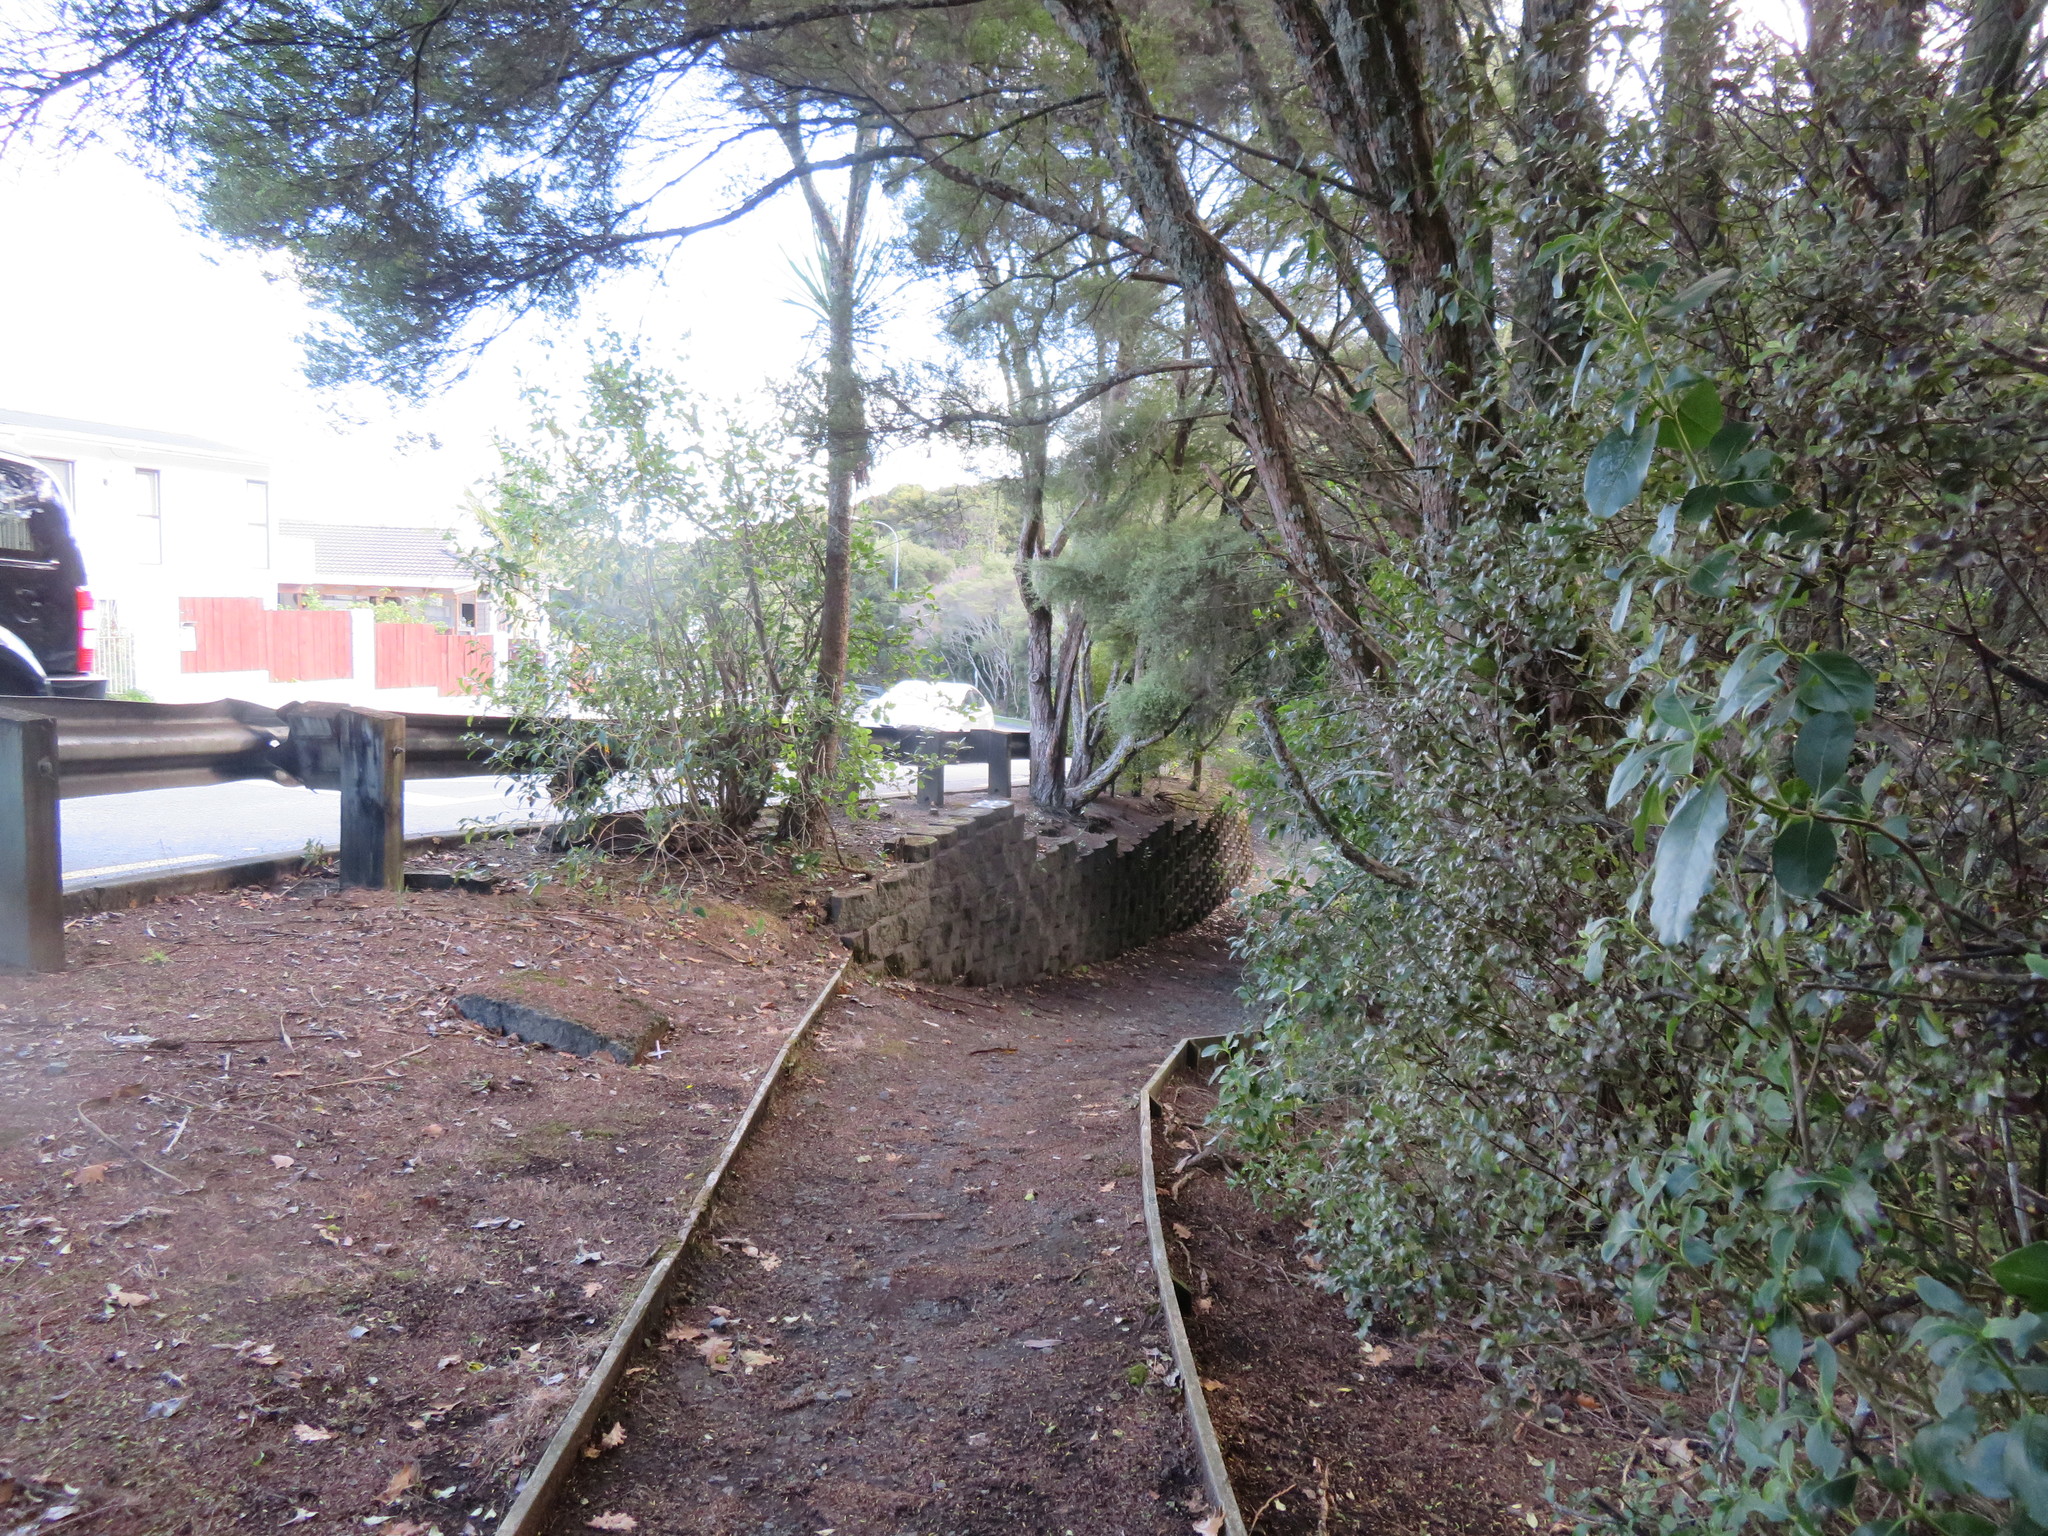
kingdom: Plantae
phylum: Tracheophyta
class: Magnoliopsida
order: Gentianales
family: Rubiaceae
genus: Coprosma
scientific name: Coprosma robusta
